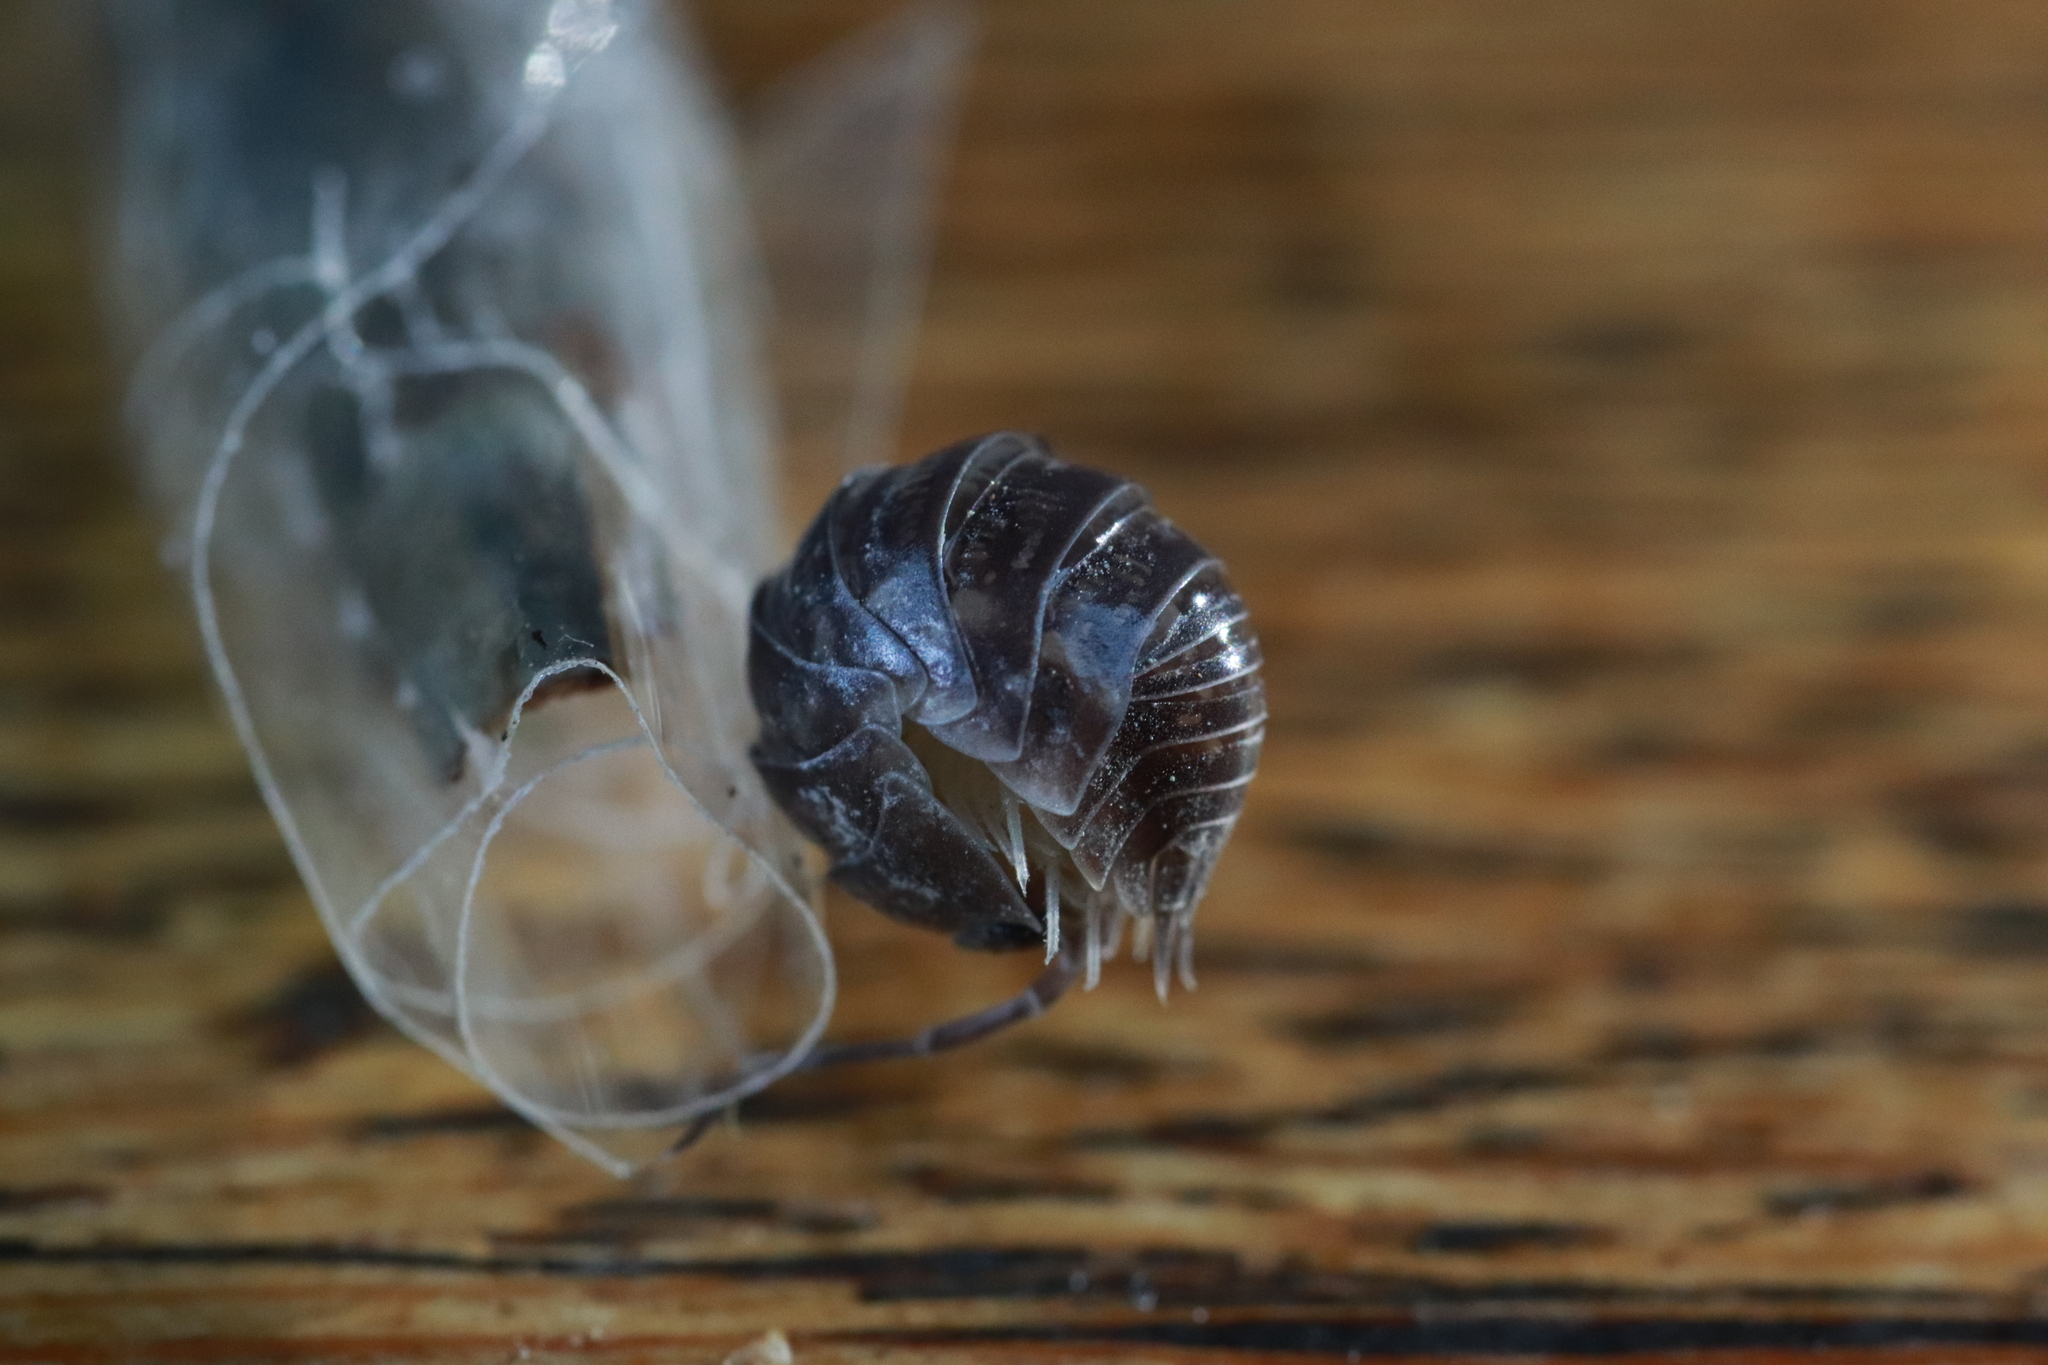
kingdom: Animalia
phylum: Arthropoda
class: Malacostraca
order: Isopoda
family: Cylisticidae
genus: Cylisticus
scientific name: Cylisticus convexus
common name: Curly woodlouse
